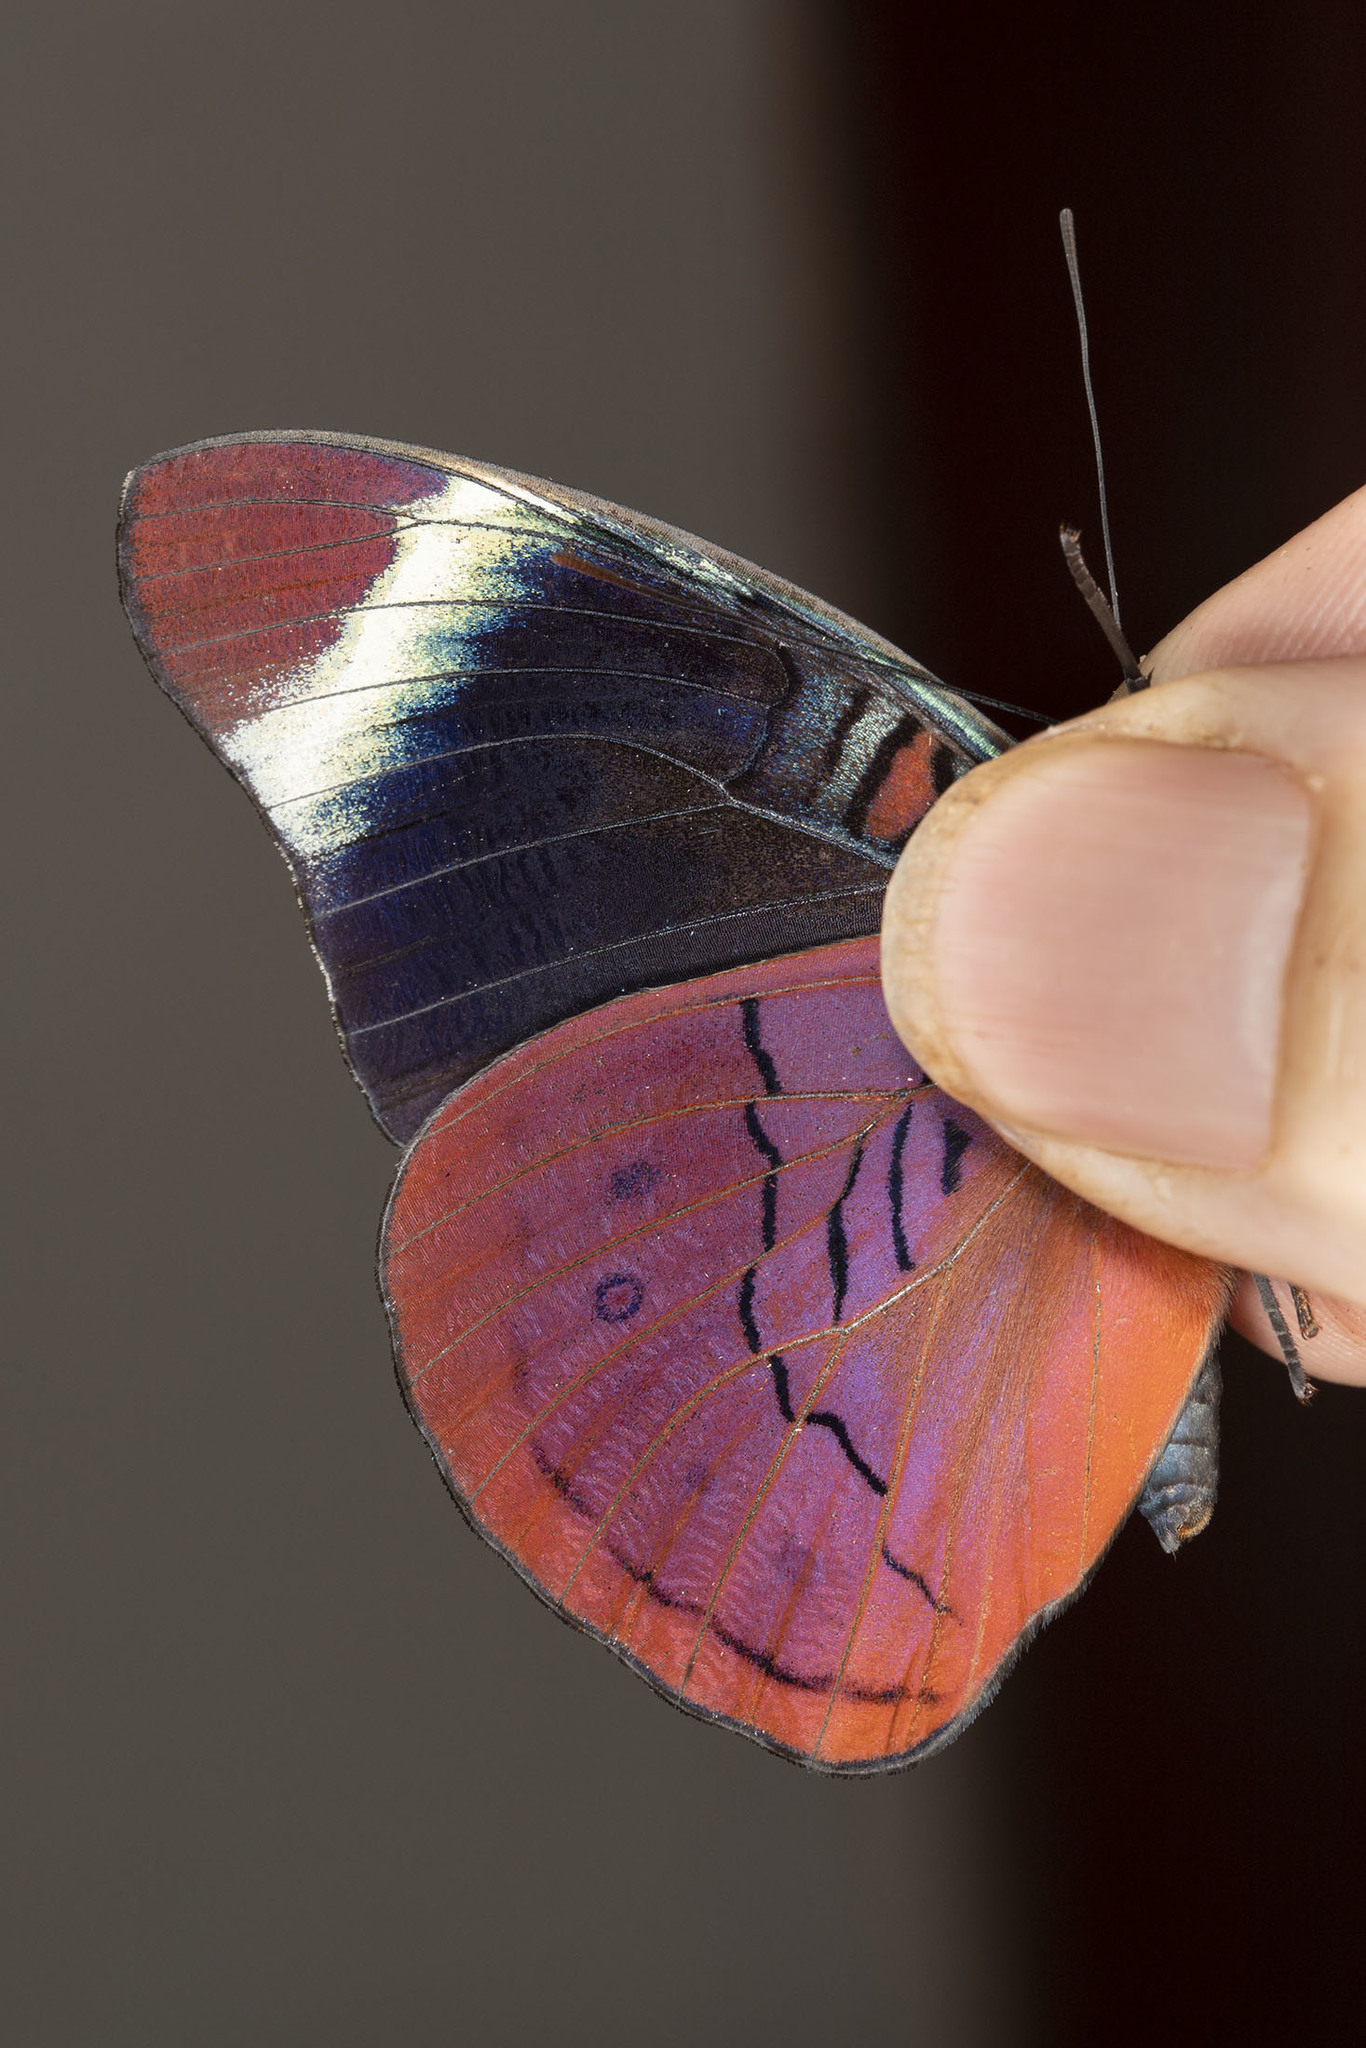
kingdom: Animalia
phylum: Arthropoda
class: Insecta
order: Lepidoptera
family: Nymphalidae
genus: Panacea
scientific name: Panacea procilla
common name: Procilla beauty
